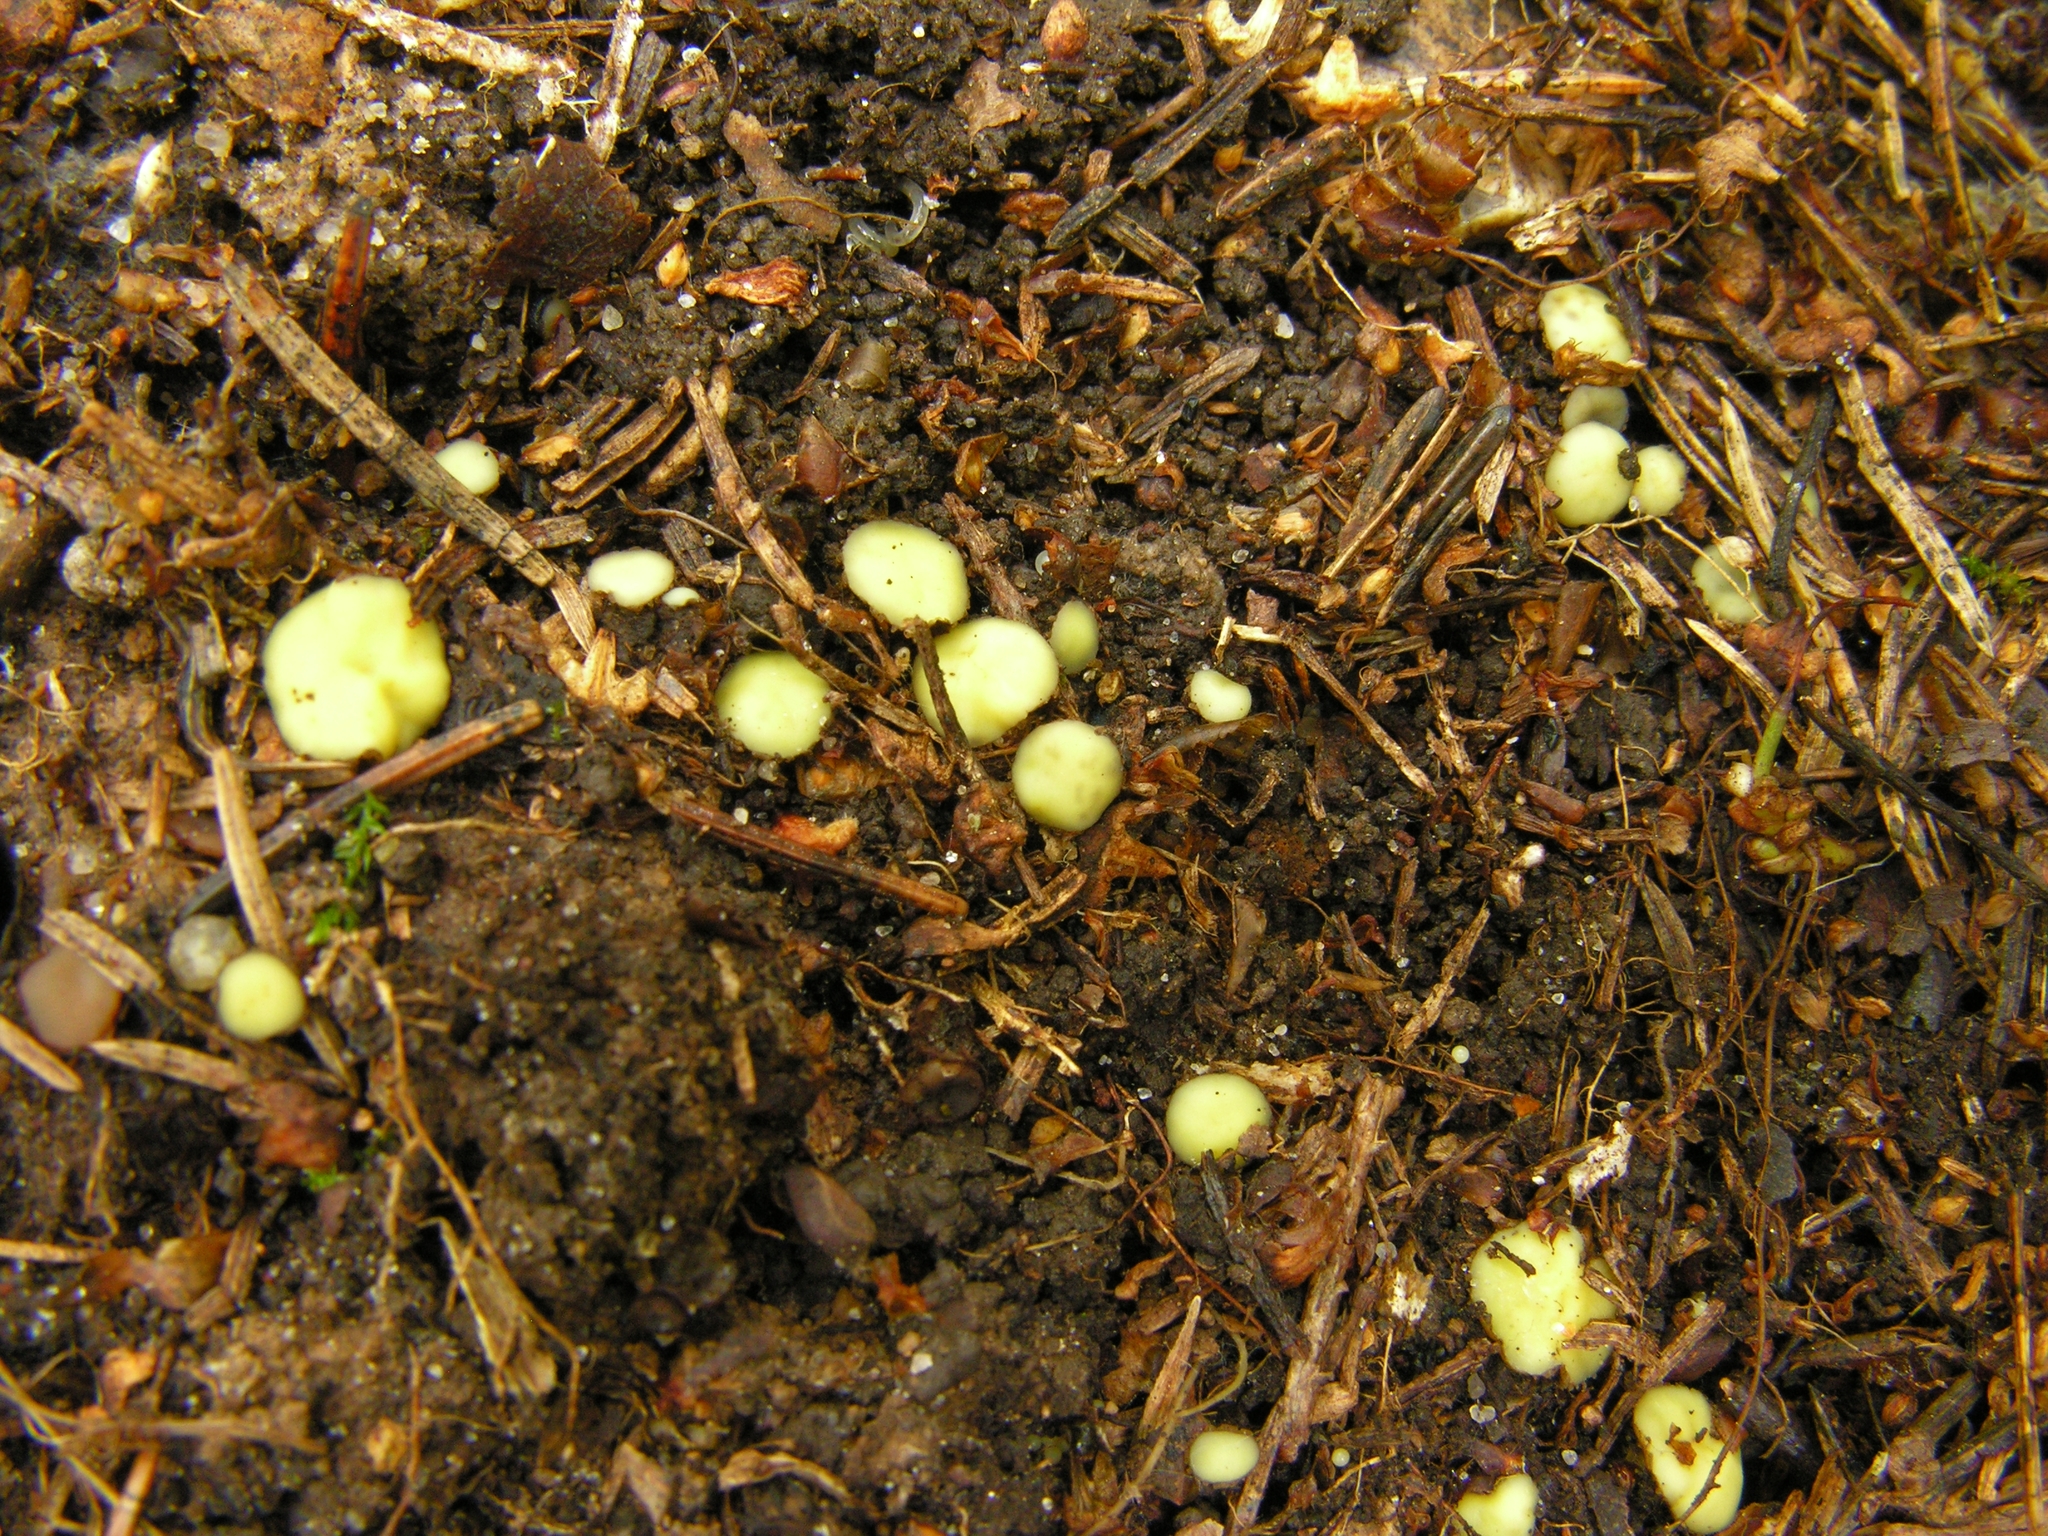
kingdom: Fungi
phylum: Ascomycota
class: Leotiomycetes
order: Helotiales
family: Dermateaceae
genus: Podophacidium
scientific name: Podophacidium xanthomelum
